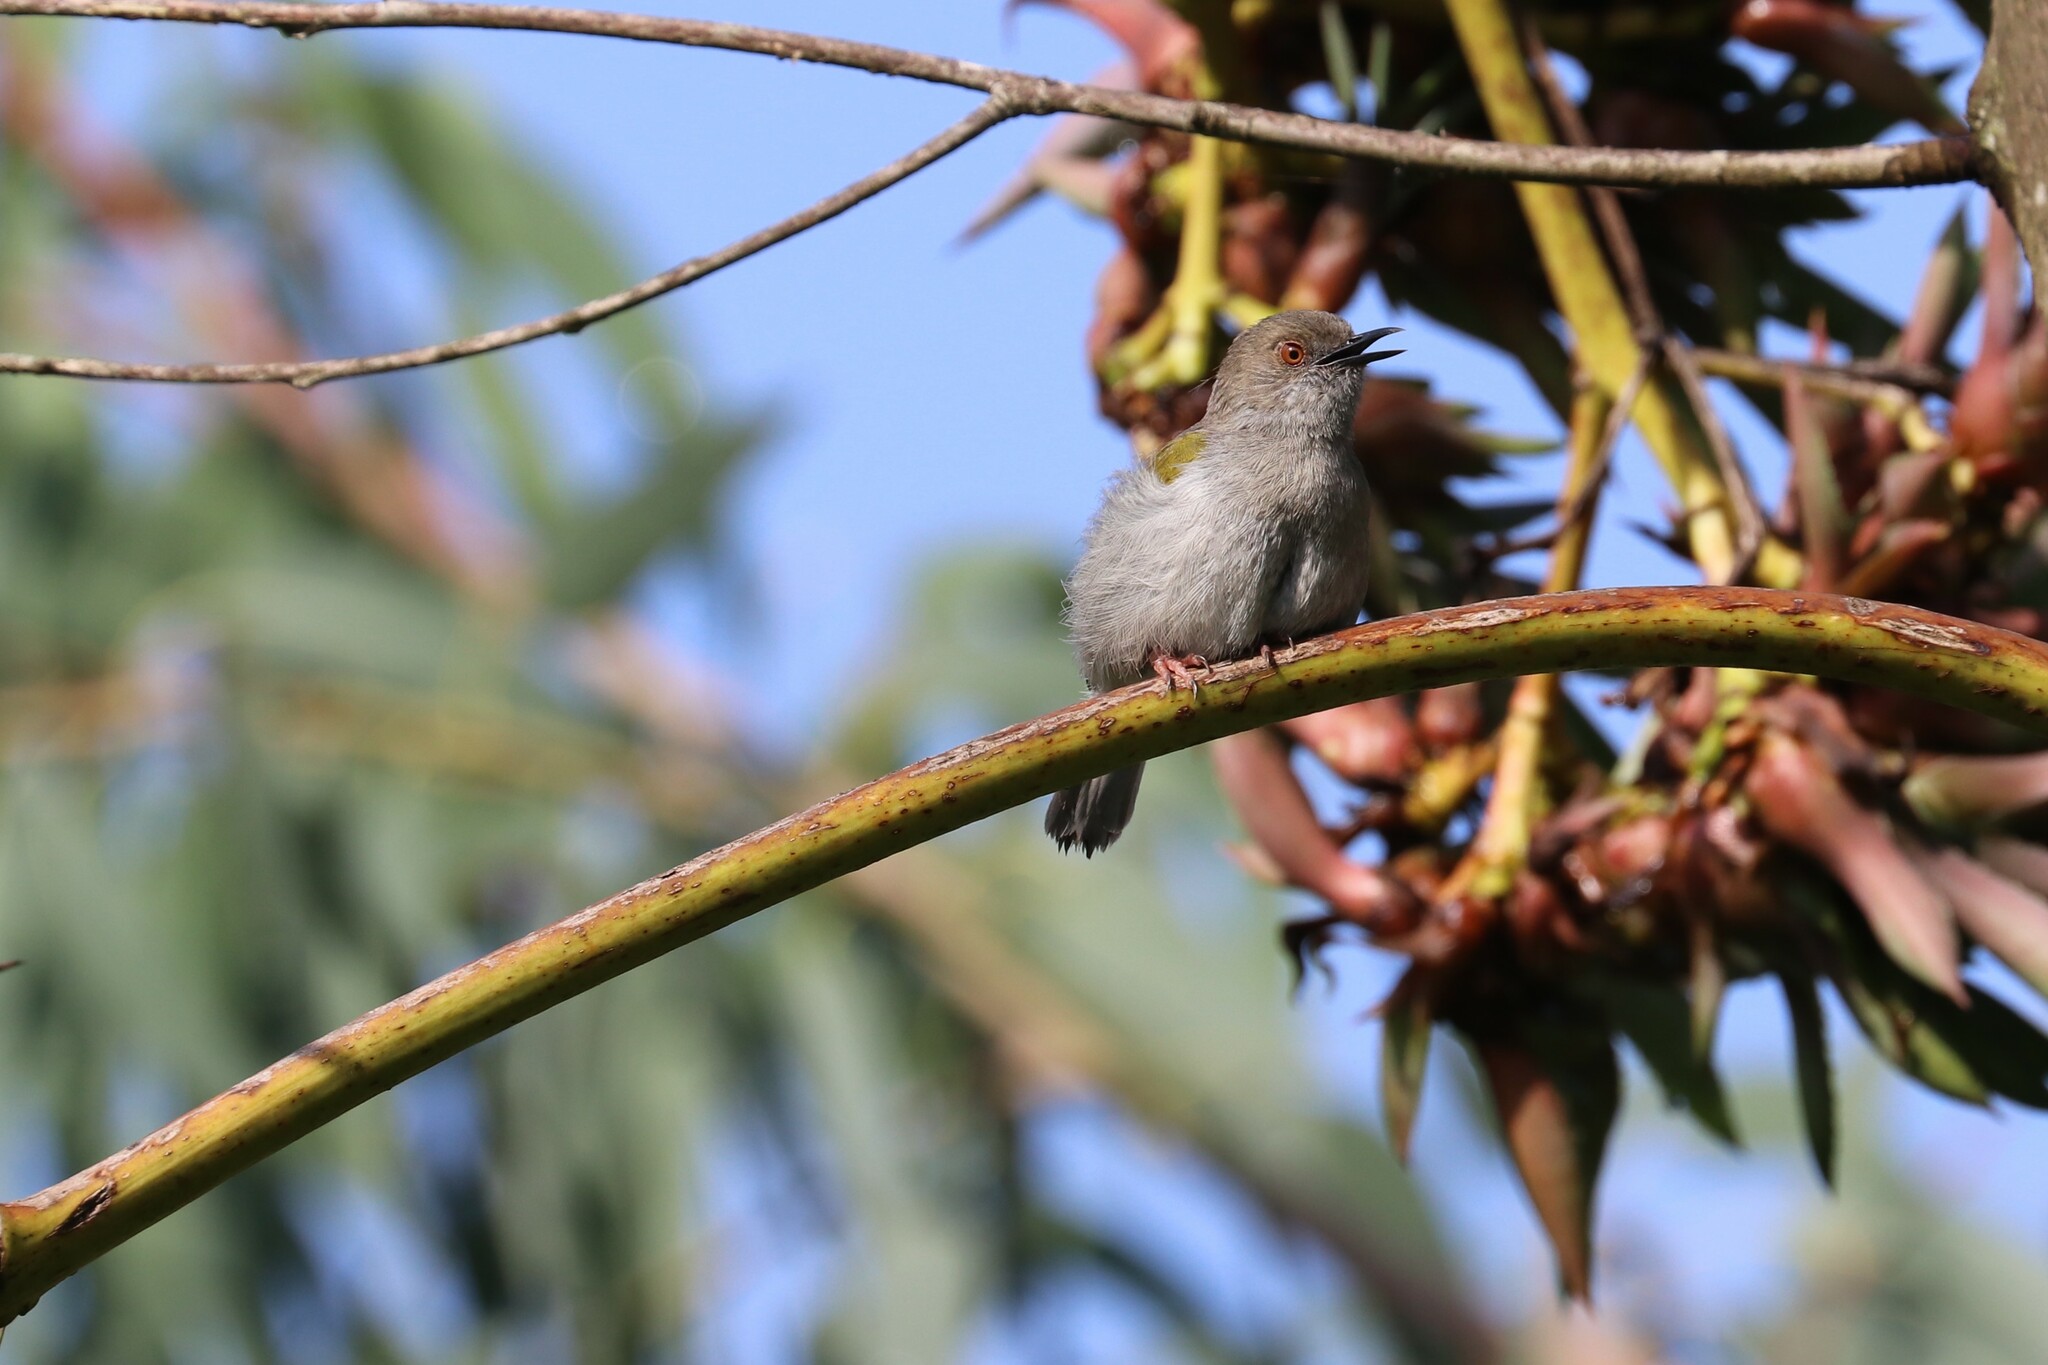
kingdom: Animalia
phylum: Chordata
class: Aves
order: Passeriformes
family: Cisticolidae
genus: Camaroptera
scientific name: Camaroptera brachyura
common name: Green-backed camaroptera
